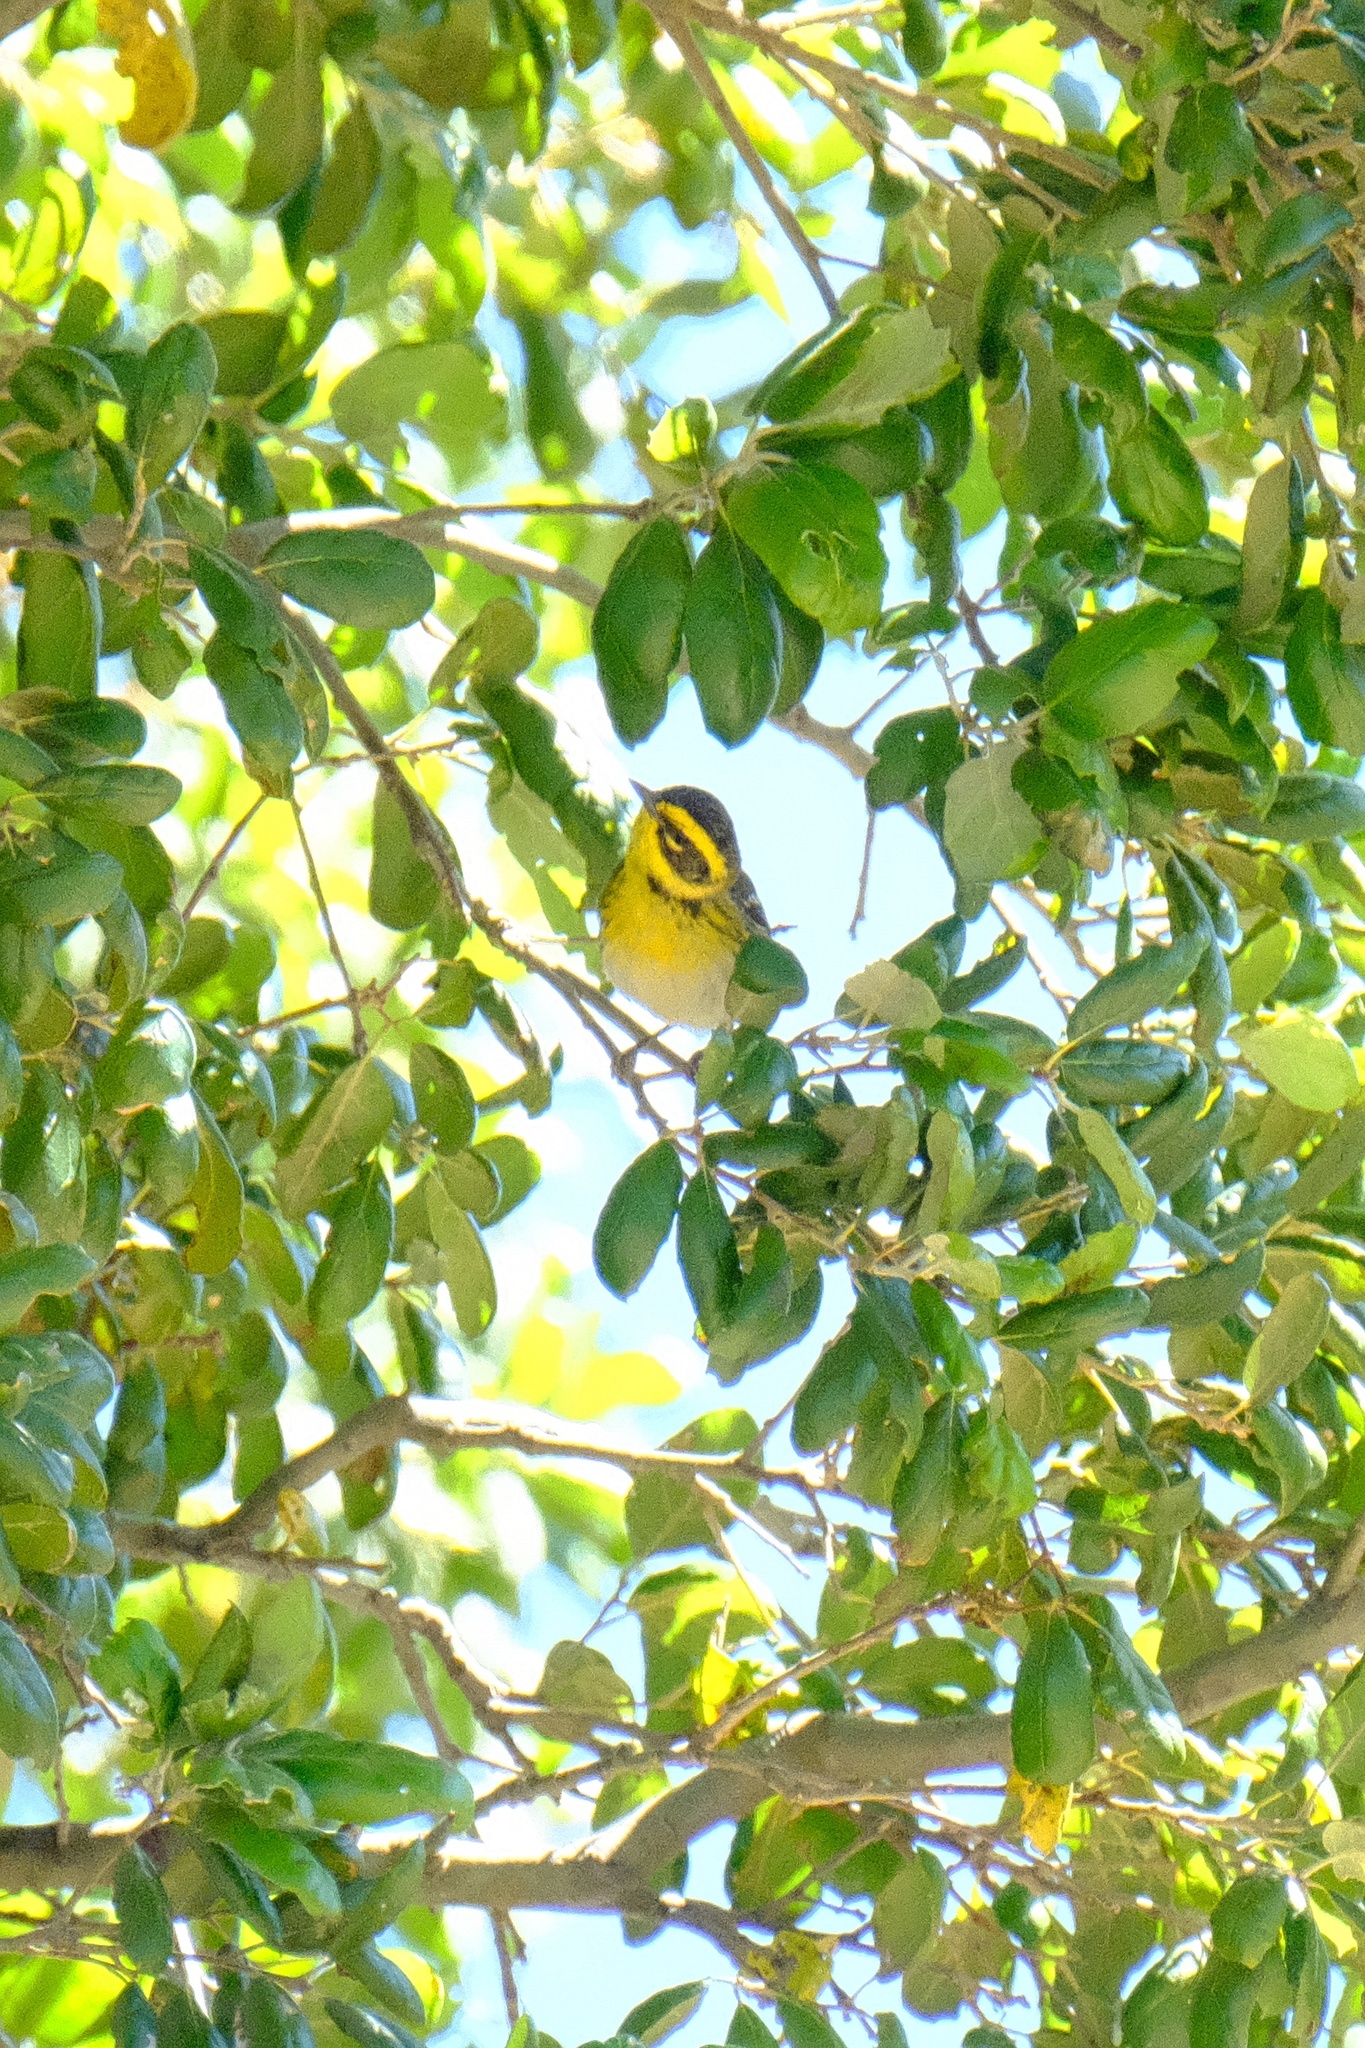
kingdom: Animalia
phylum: Chordata
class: Aves
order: Passeriformes
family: Parulidae
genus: Setophaga
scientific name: Setophaga townsendi
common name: Townsend's warbler
